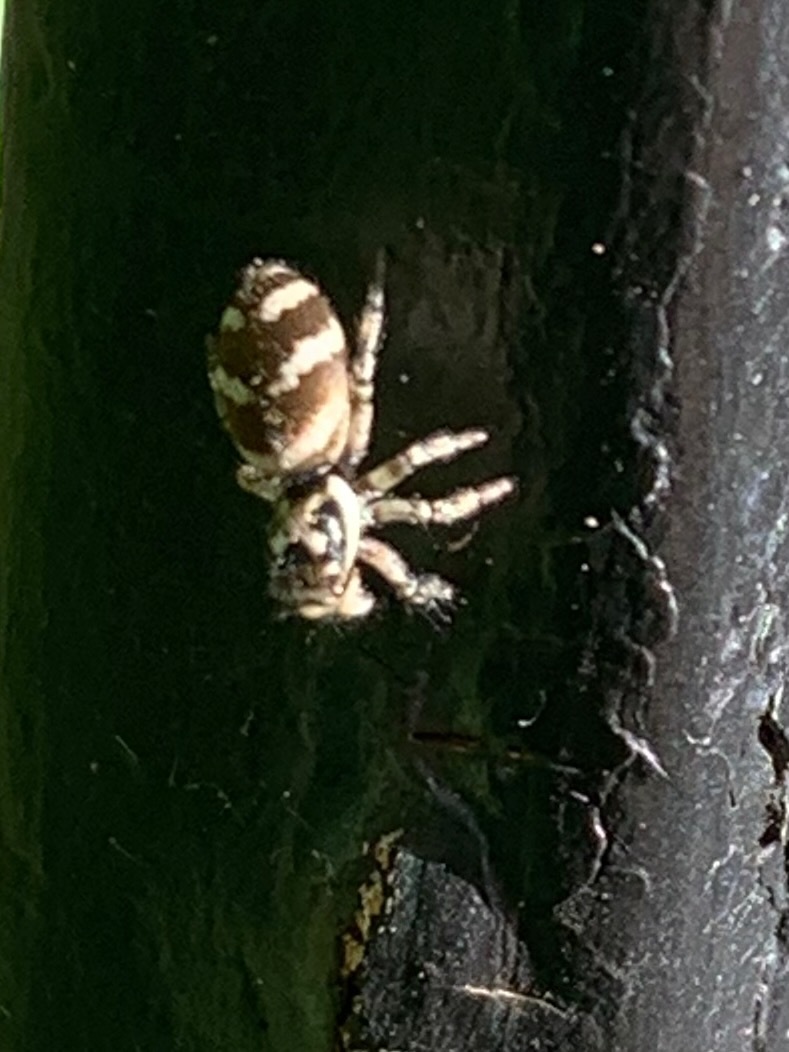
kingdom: Animalia
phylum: Arthropoda
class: Arachnida
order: Araneae
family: Salticidae
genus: Salticus
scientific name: Salticus scenicus
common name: Zebra jumper
